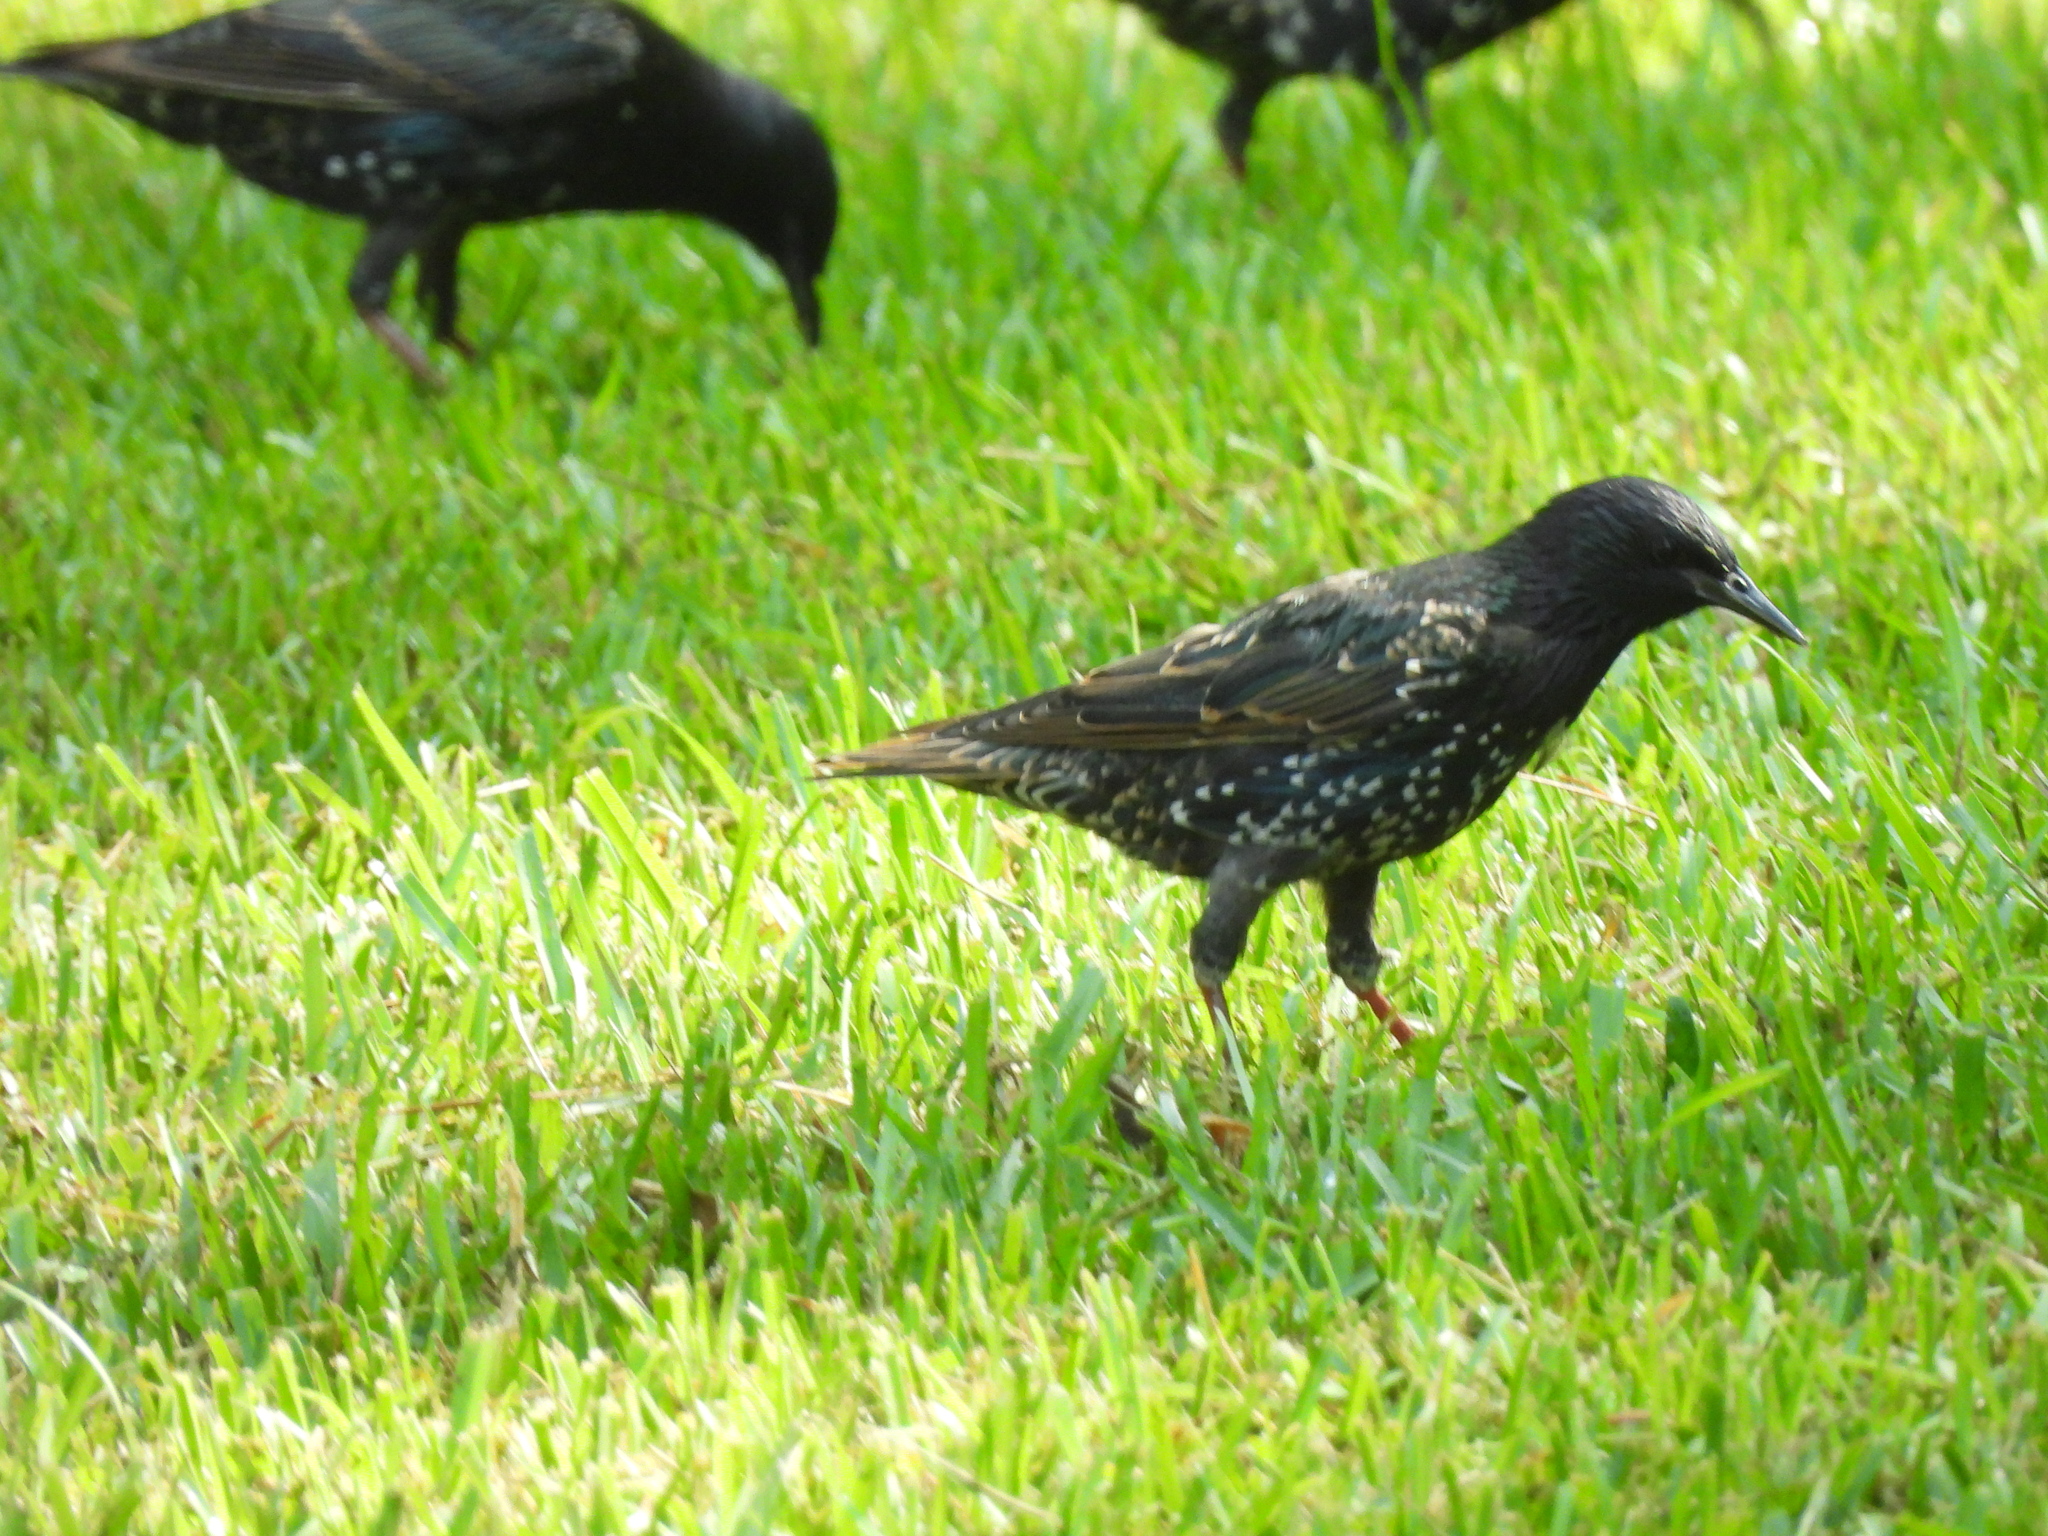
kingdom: Animalia
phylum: Chordata
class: Aves
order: Passeriformes
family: Sturnidae
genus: Sturnus
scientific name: Sturnus vulgaris
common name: Common starling
